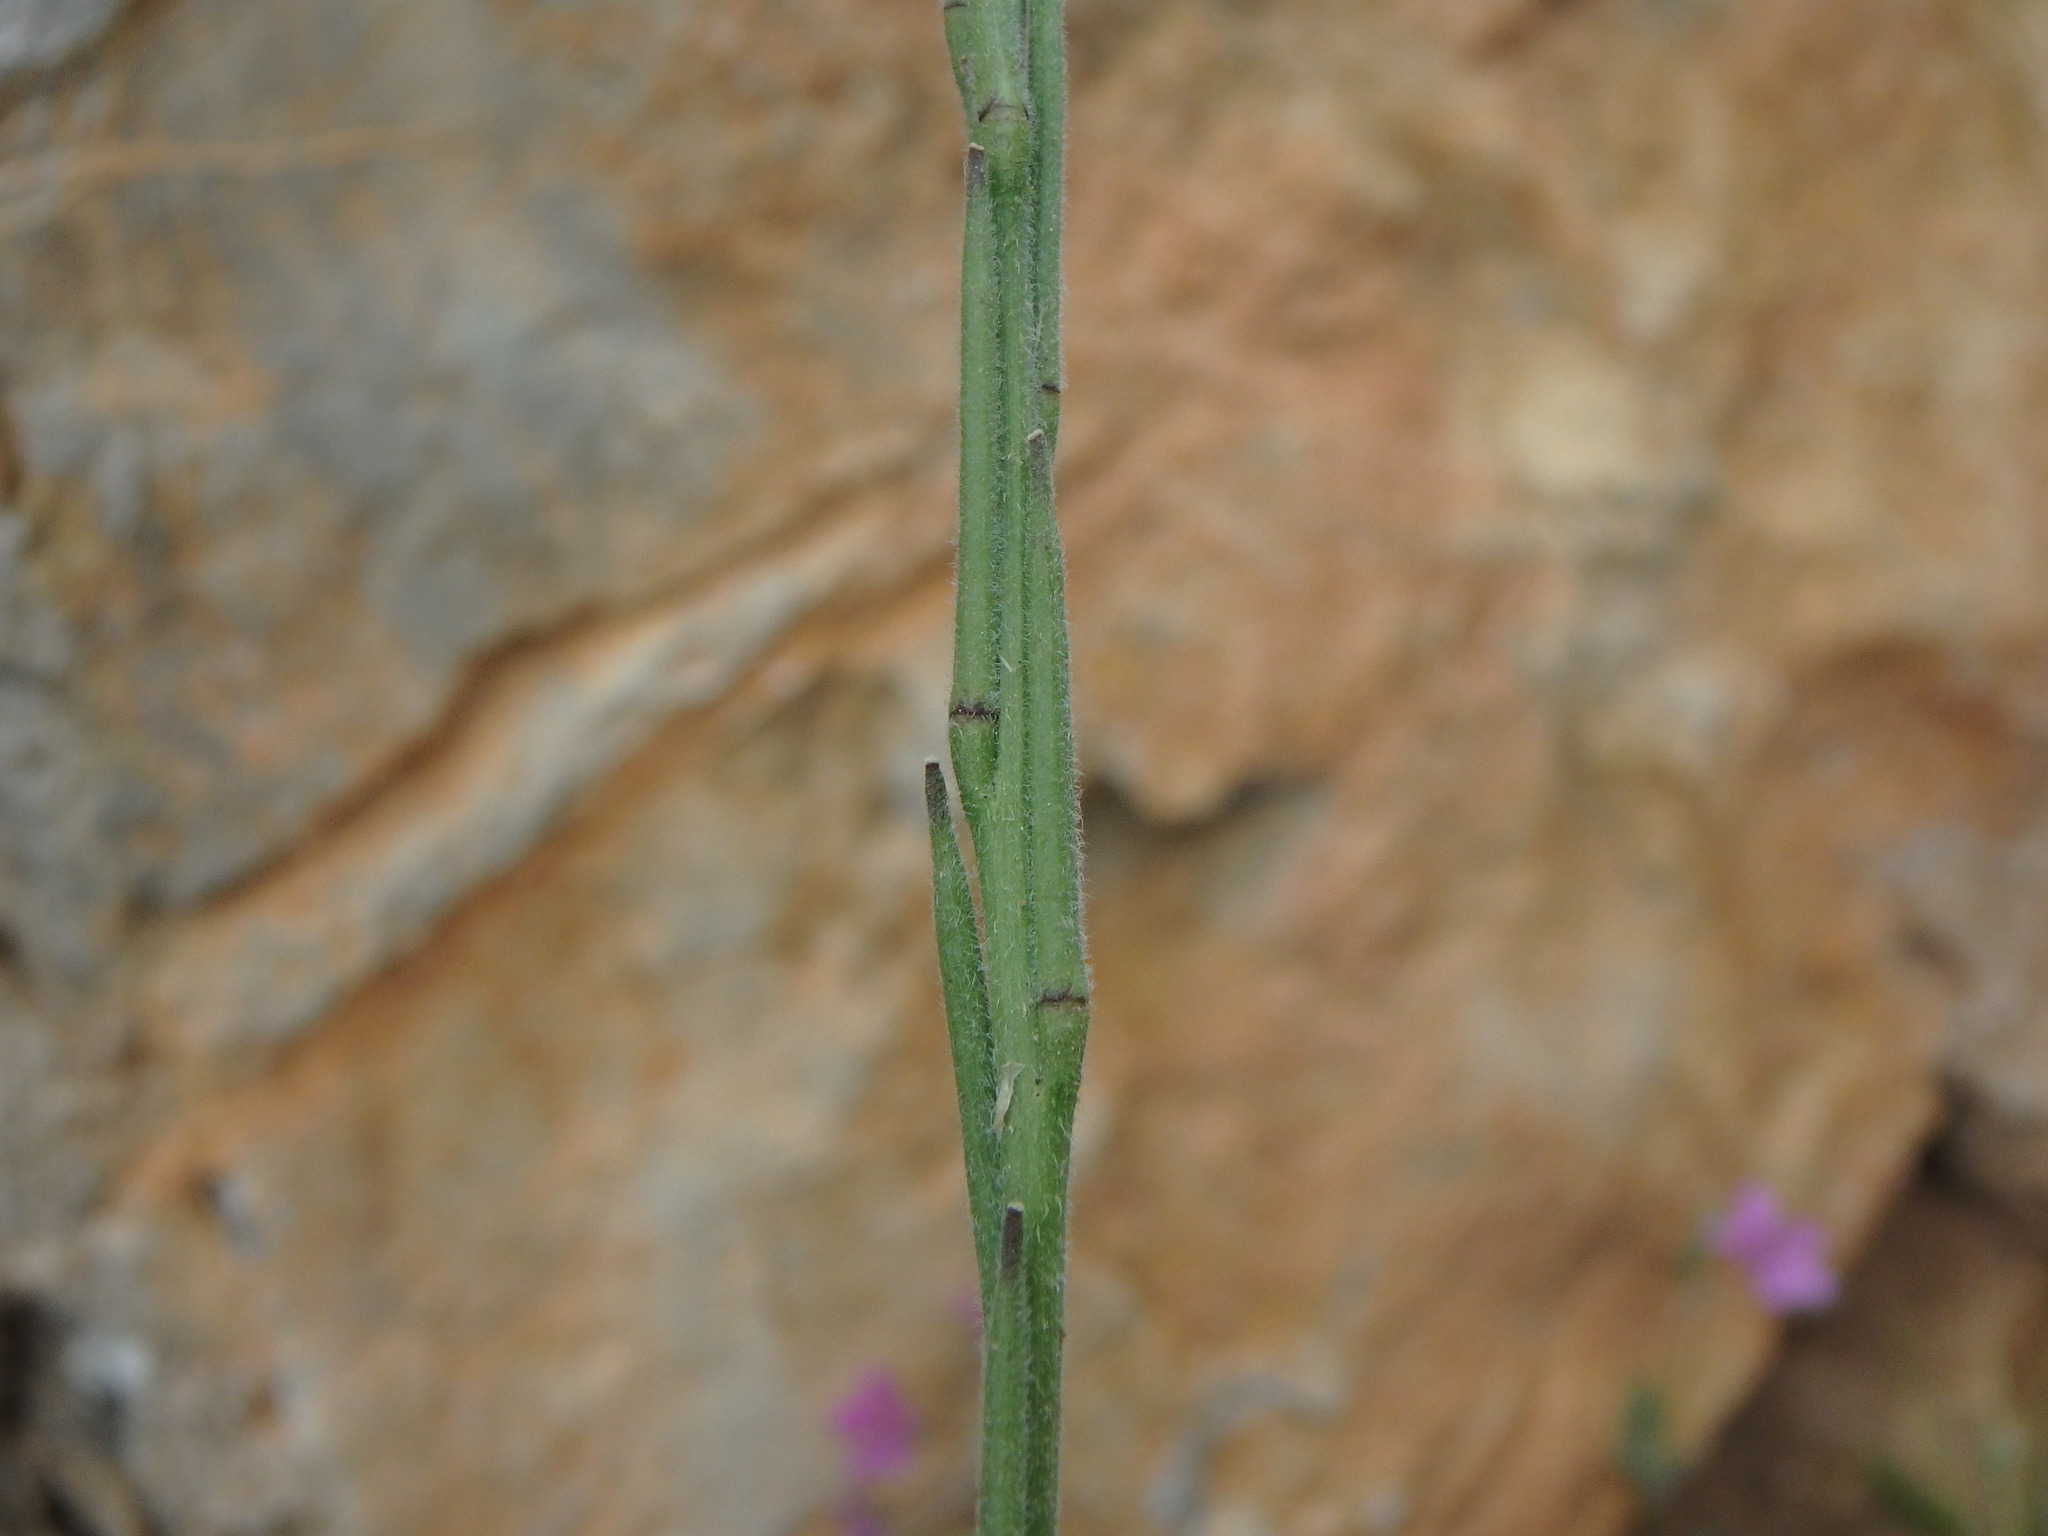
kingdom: Plantae
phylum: Tracheophyta
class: Magnoliopsida
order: Brassicales
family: Brassicaceae
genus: Sisymbrium
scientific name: Sisymbrium officinale
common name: Hedge mustard
